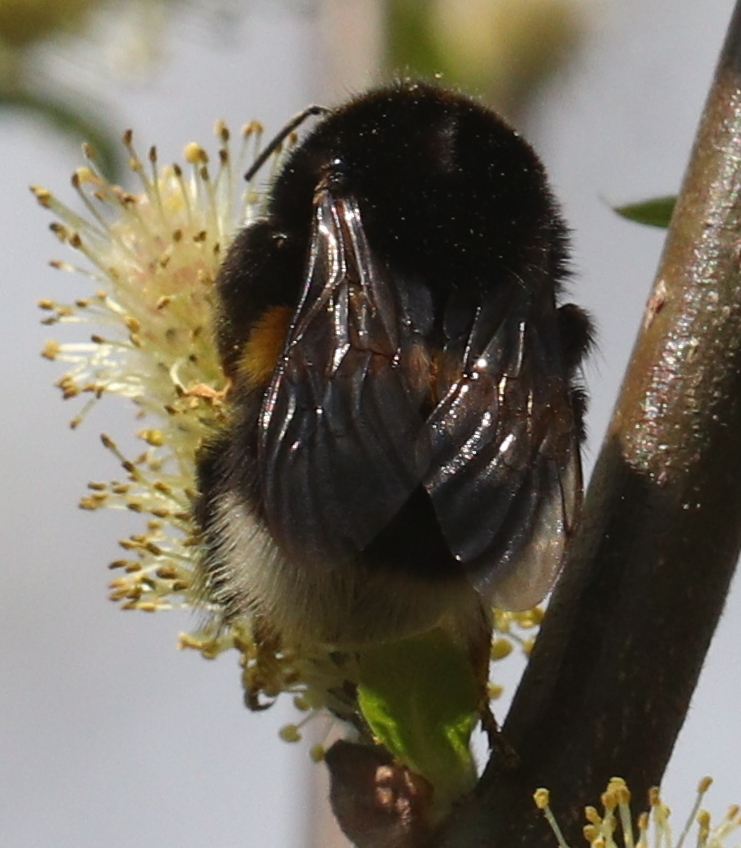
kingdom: Animalia
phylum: Arthropoda
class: Insecta
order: Hymenoptera
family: Apidae
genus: Bombus
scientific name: Bombus
